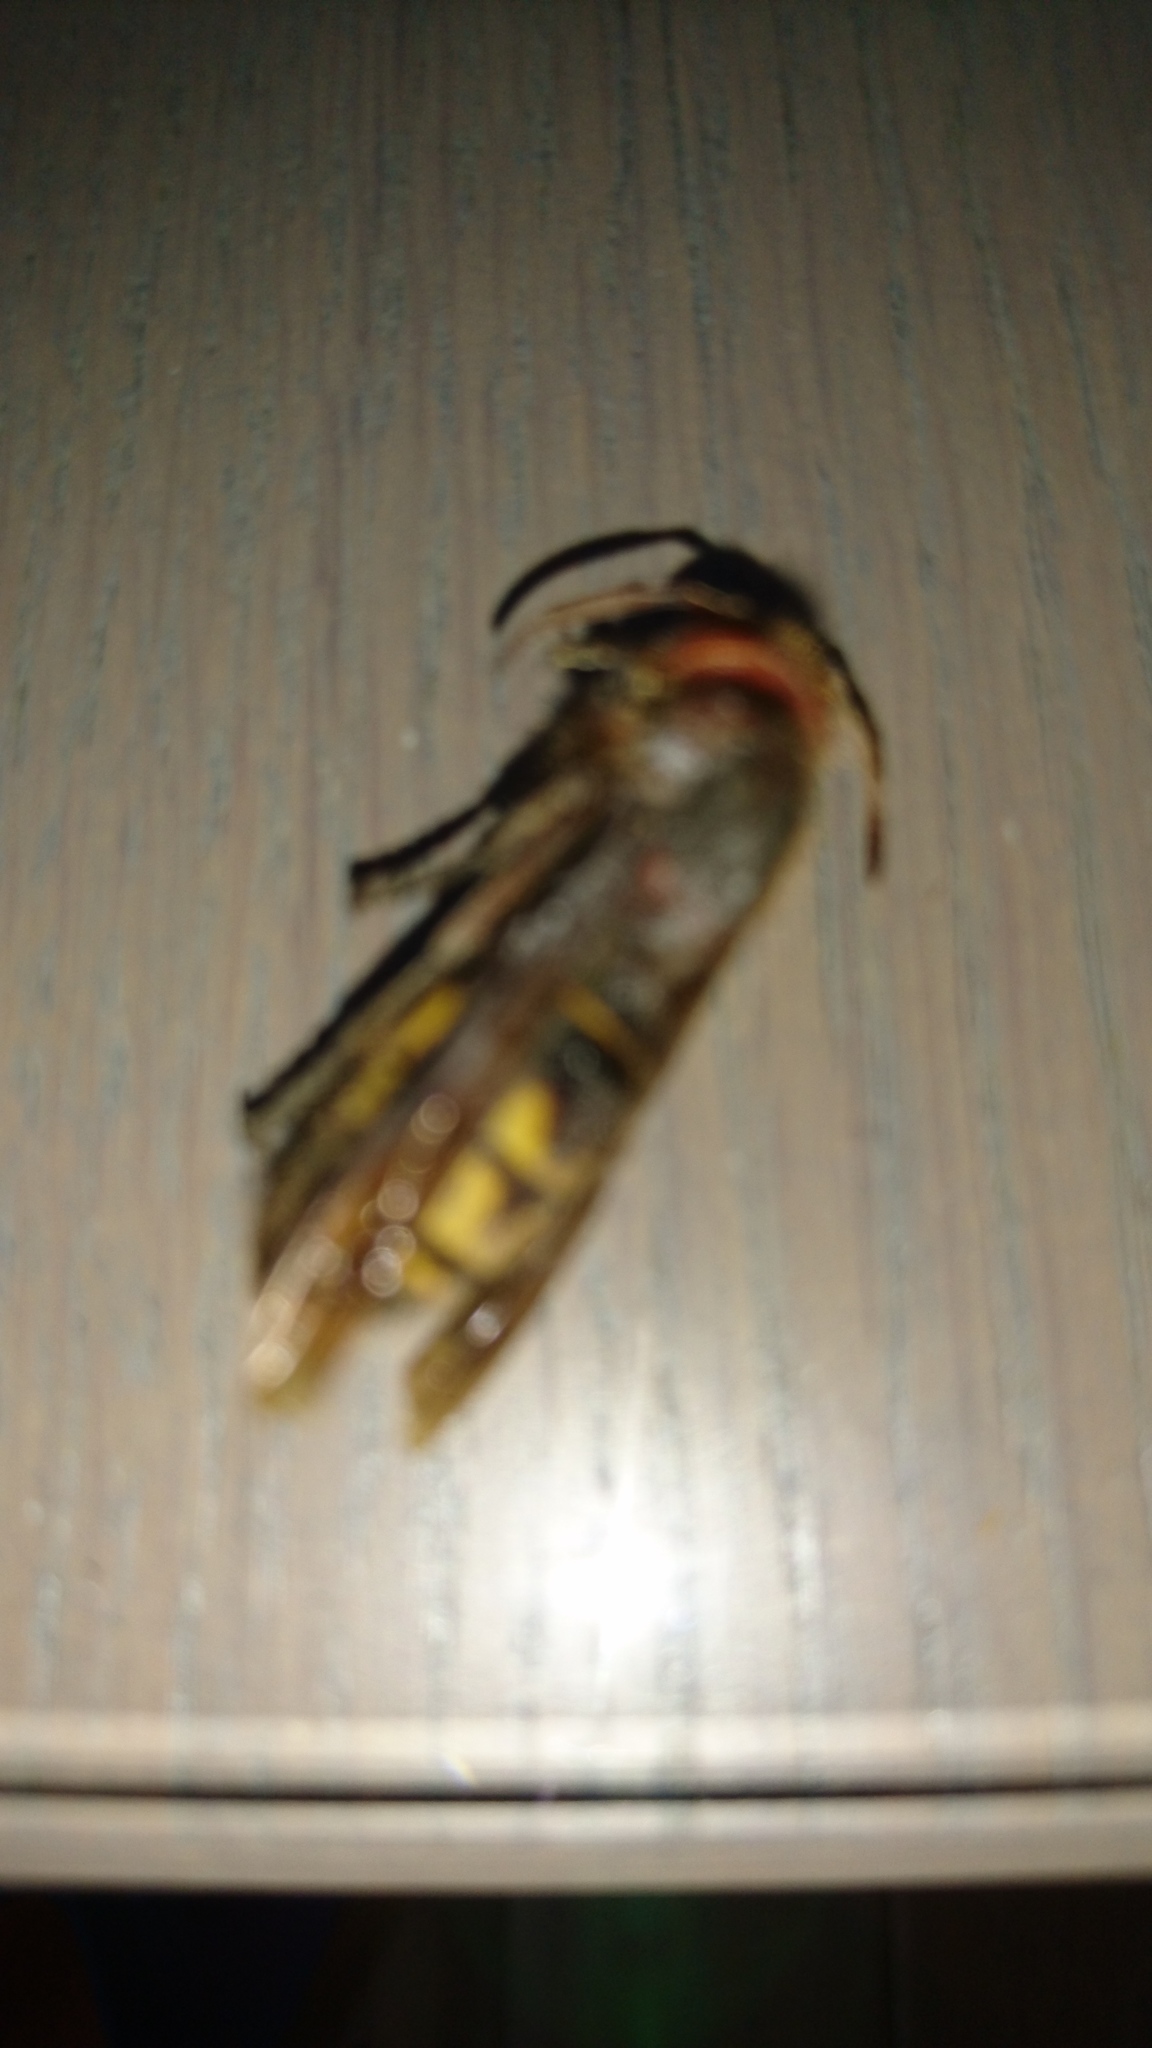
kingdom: Animalia
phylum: Arthropoda
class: Insecta
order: Hymenoptera
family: Vespidae
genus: Vespa
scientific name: Vespa crabro
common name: Hornet
